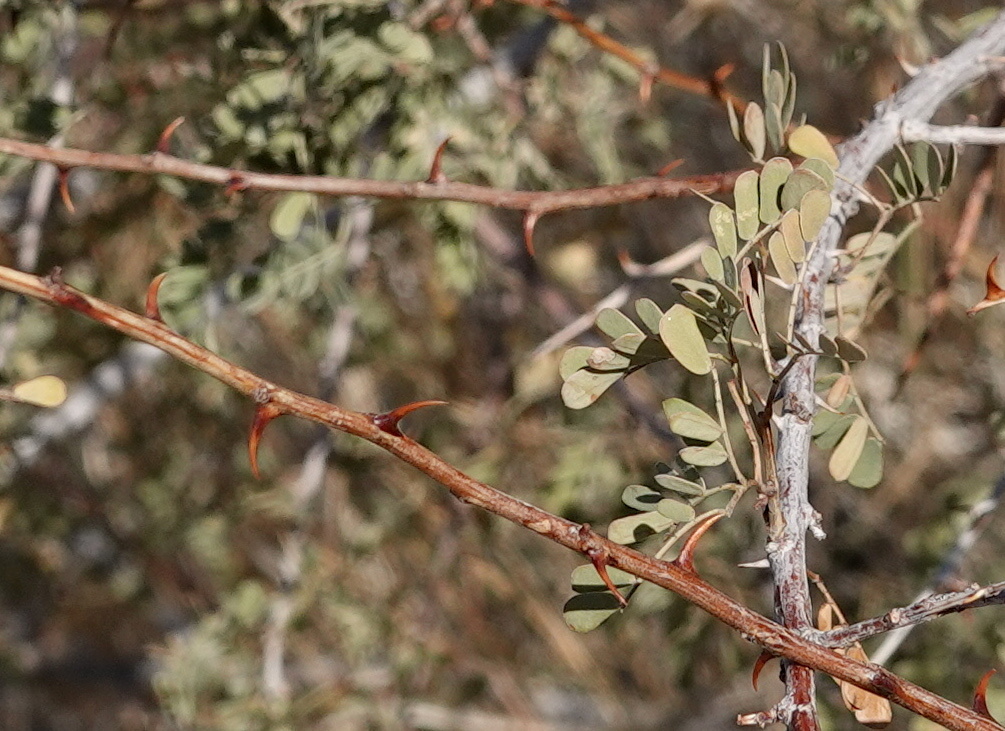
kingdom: Plantae
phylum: Tracheophyta
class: Magnoliopsida
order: Fabales
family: Fabaceae
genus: Senegalia
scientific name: Senegalia greggii
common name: Texas-mimosa
